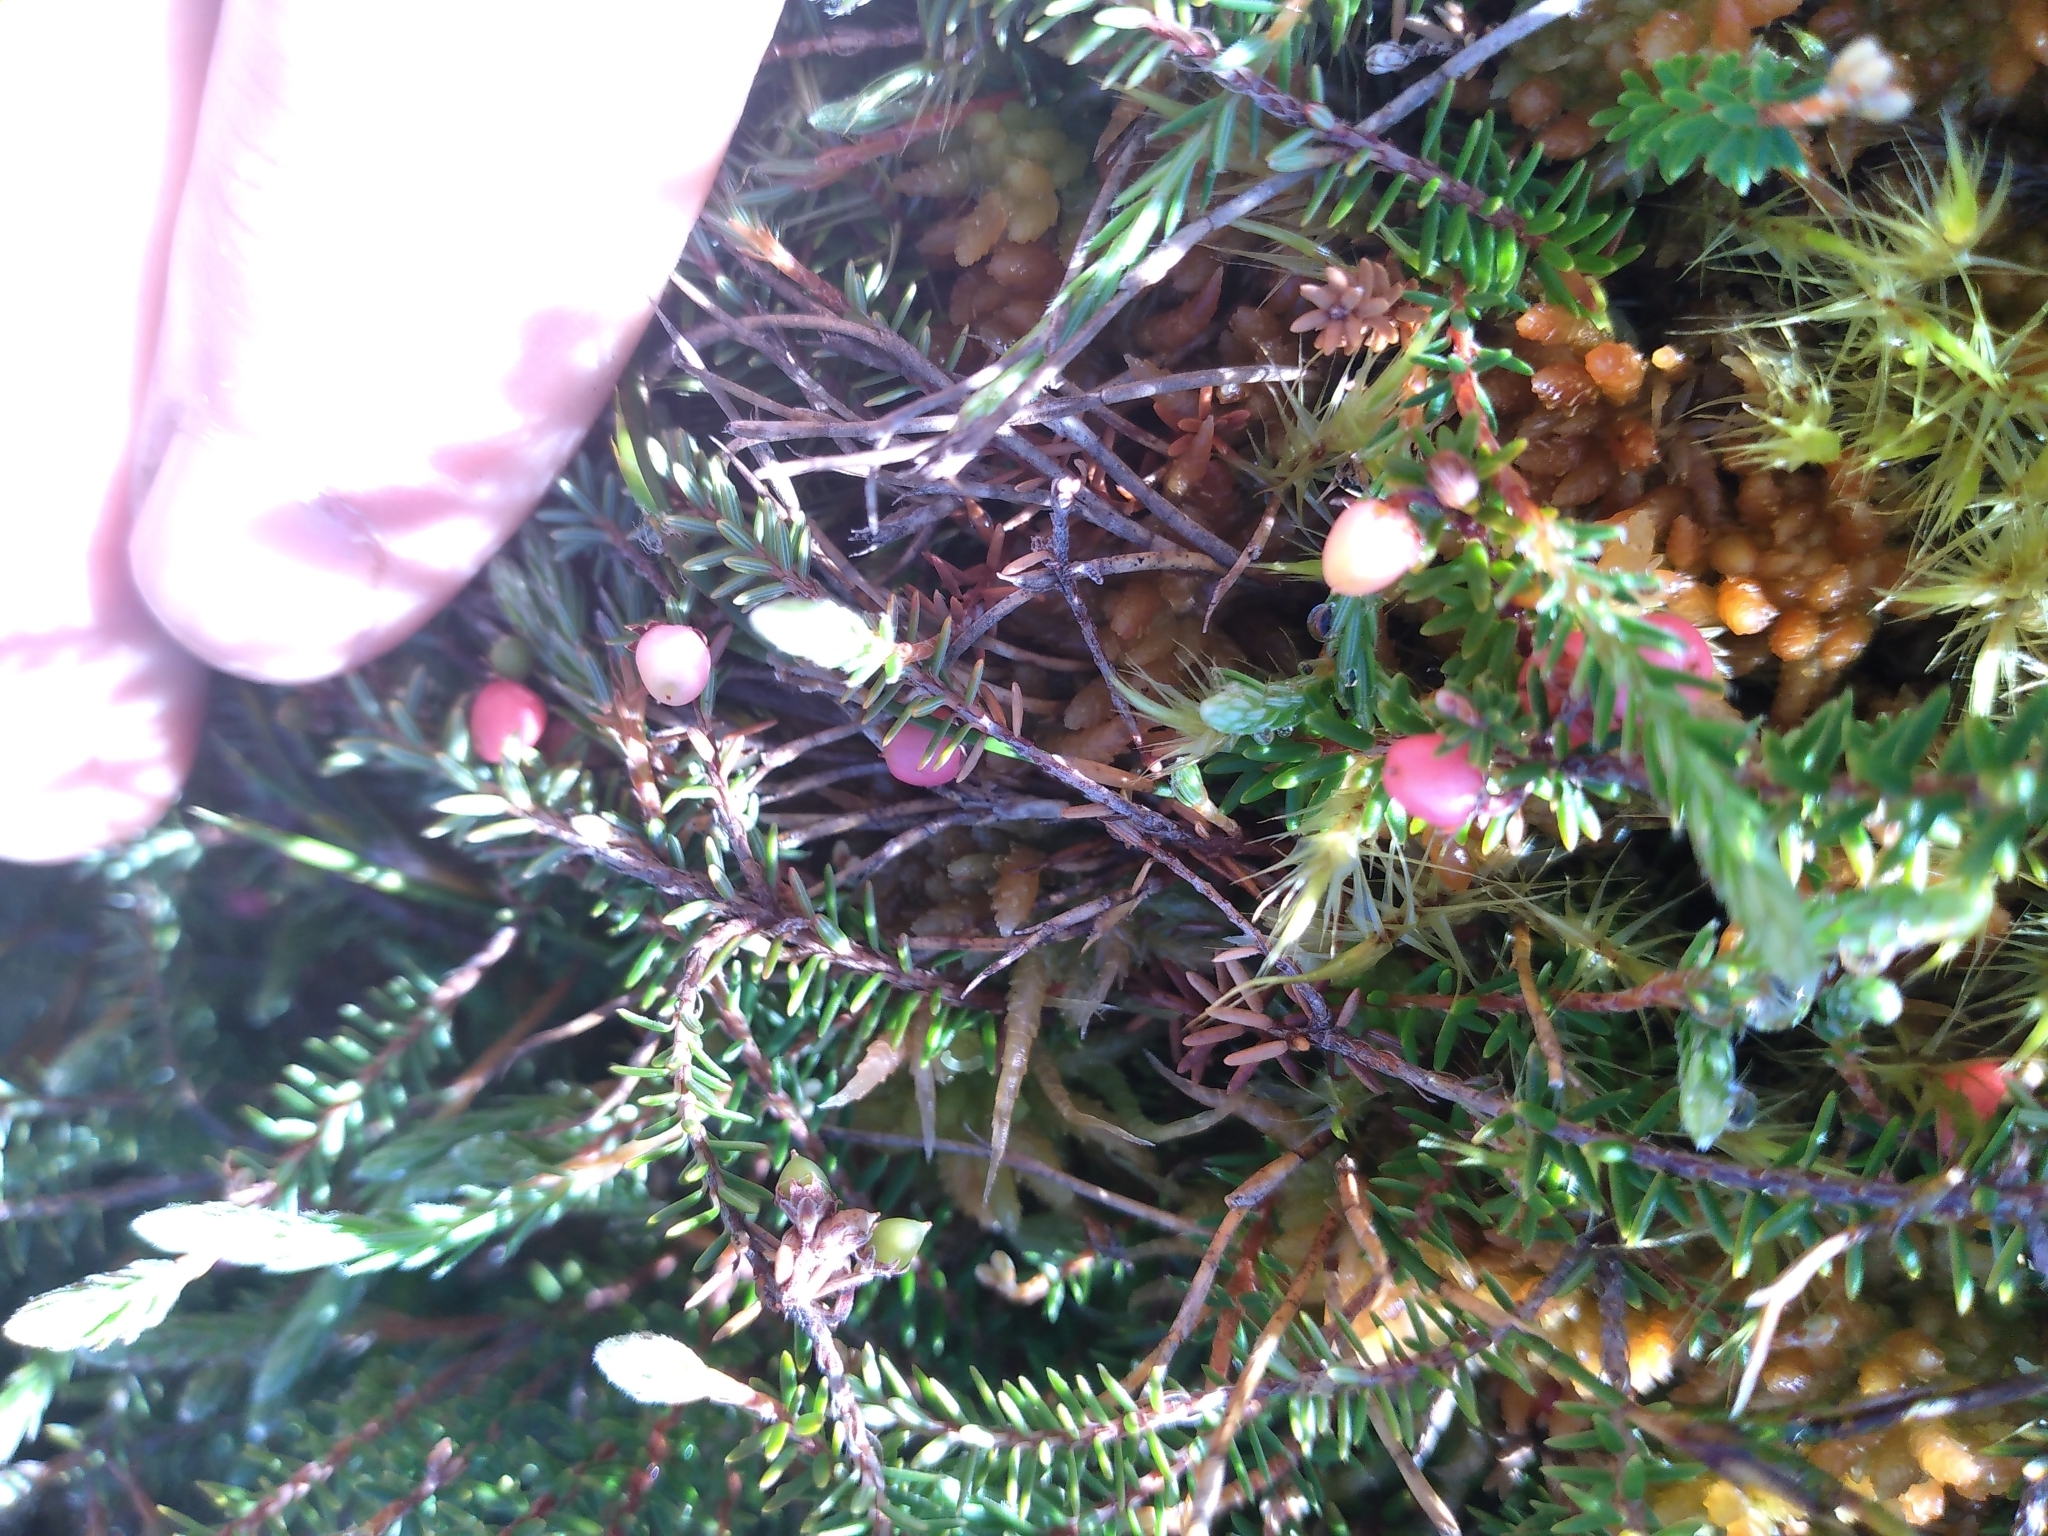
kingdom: Plantae
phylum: Tracheophyta
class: Magnoliopsida
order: Ericales
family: Ericaceae
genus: Androstoma
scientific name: Androstoma empetrifolia
